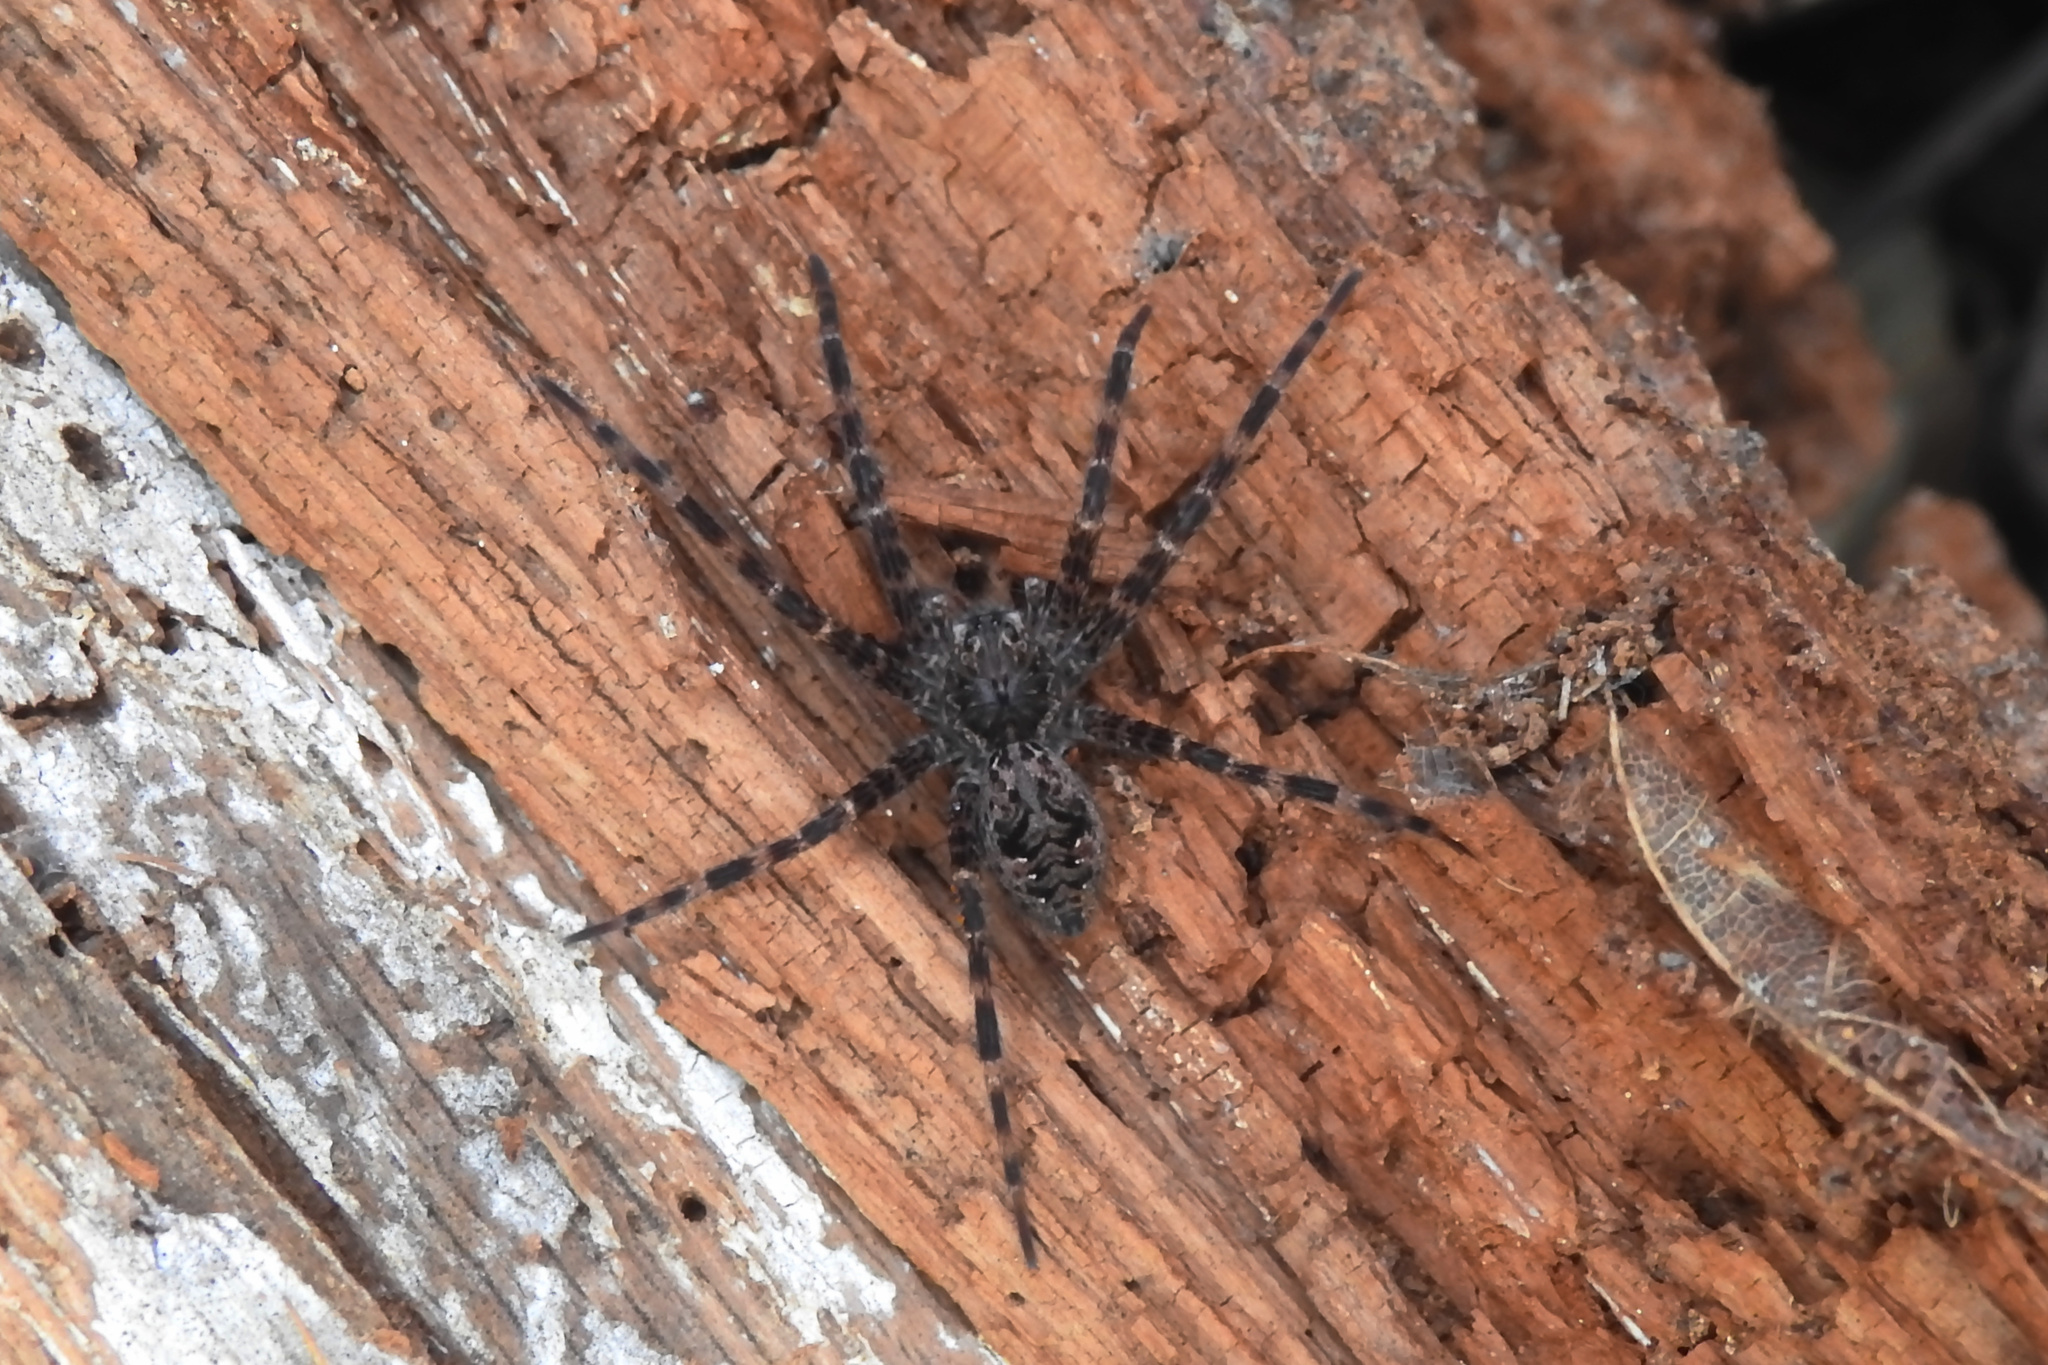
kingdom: Animalia
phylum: Arthropoda
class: Arachnida
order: Araneae
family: Pisauridae
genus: Dolomedes
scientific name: Dolomedes tenebrosus
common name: Dark fishing spider
